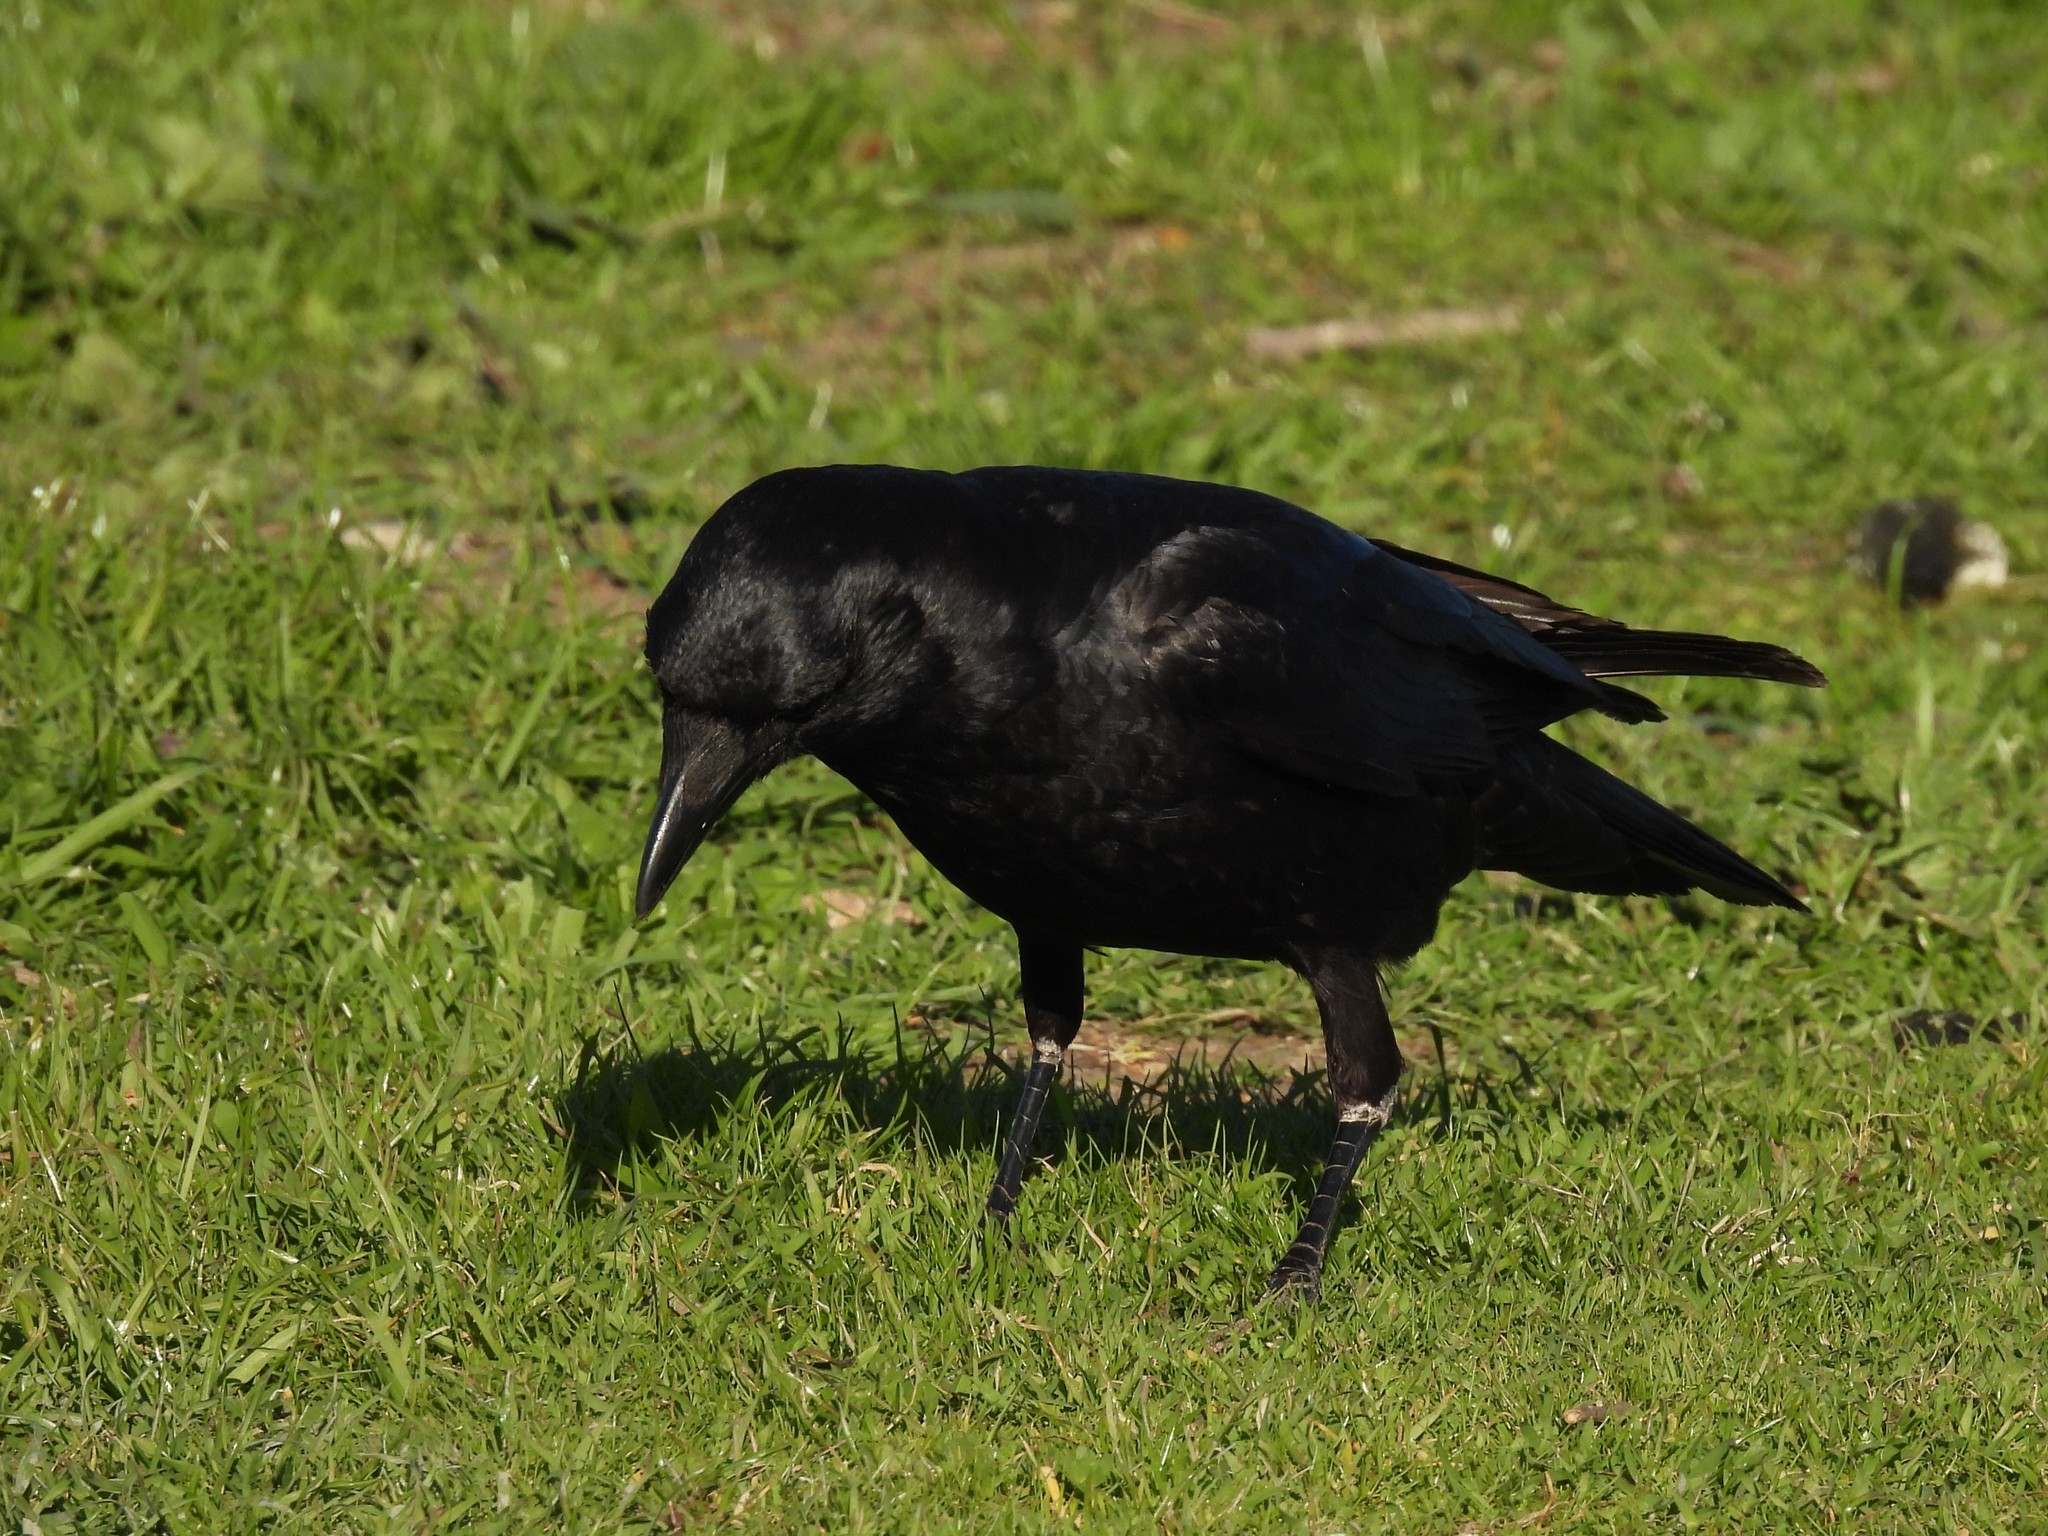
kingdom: Animalia
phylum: Chordata
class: Aves
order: Passeriformes
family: Corvidae
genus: Corvus
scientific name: Corvus brachyrhynchos
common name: American crow
